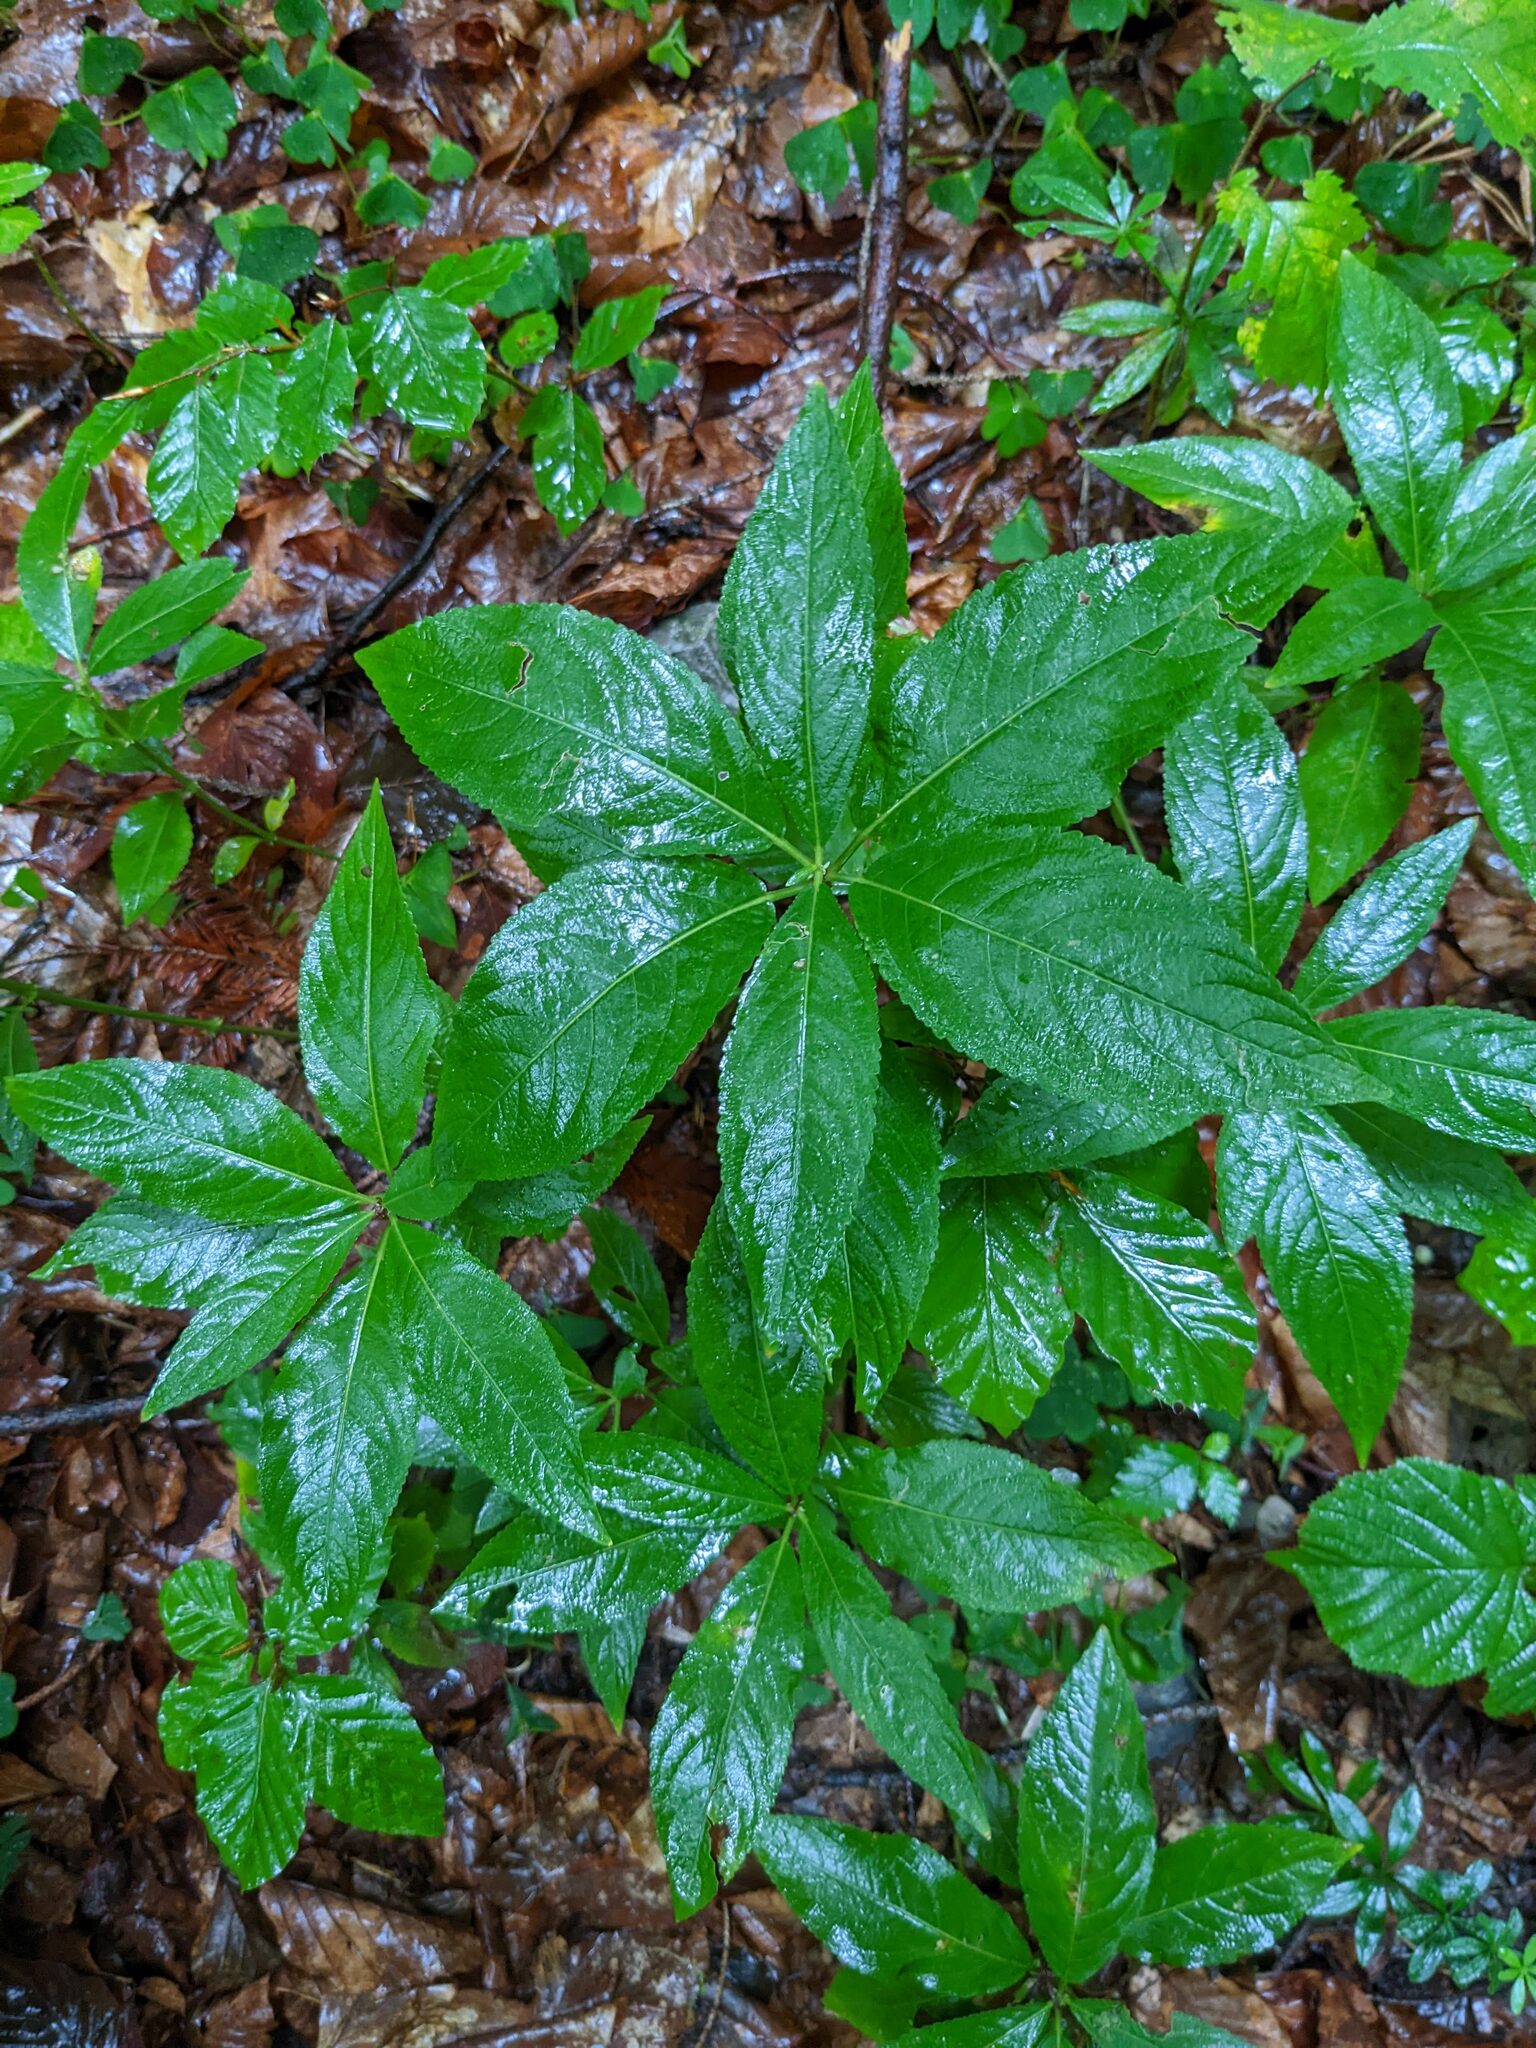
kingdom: Plantae
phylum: Tracheophyta
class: Magnoliopsida
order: Malpighiales
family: Euphorbiaceae
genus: Mercurialis
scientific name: Mercurialis perennis
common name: Dog mercury
